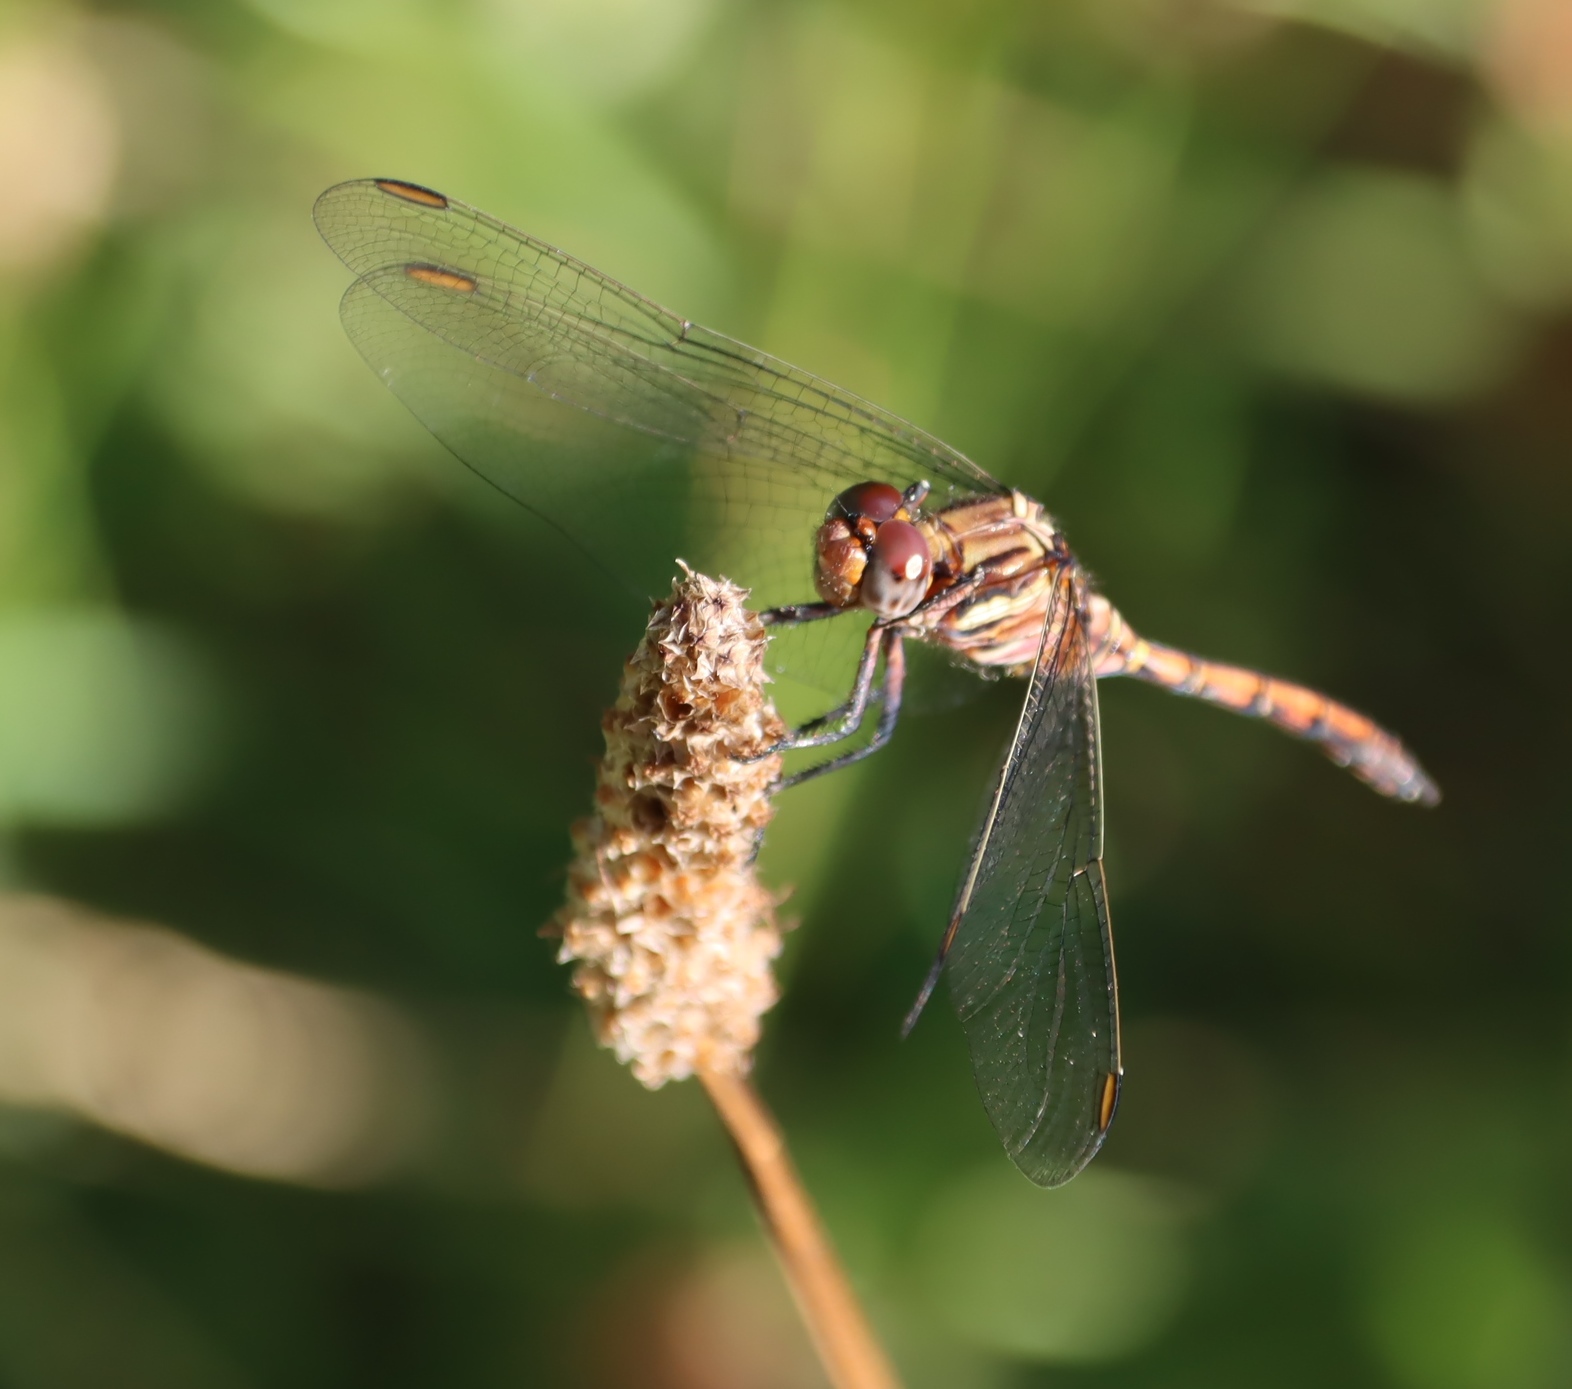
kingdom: Animalia
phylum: Arthropoda
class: Insecta
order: Odonata
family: Libellulidae
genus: Orthetrum
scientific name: Orthetrum julia
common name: Julia skimmer
